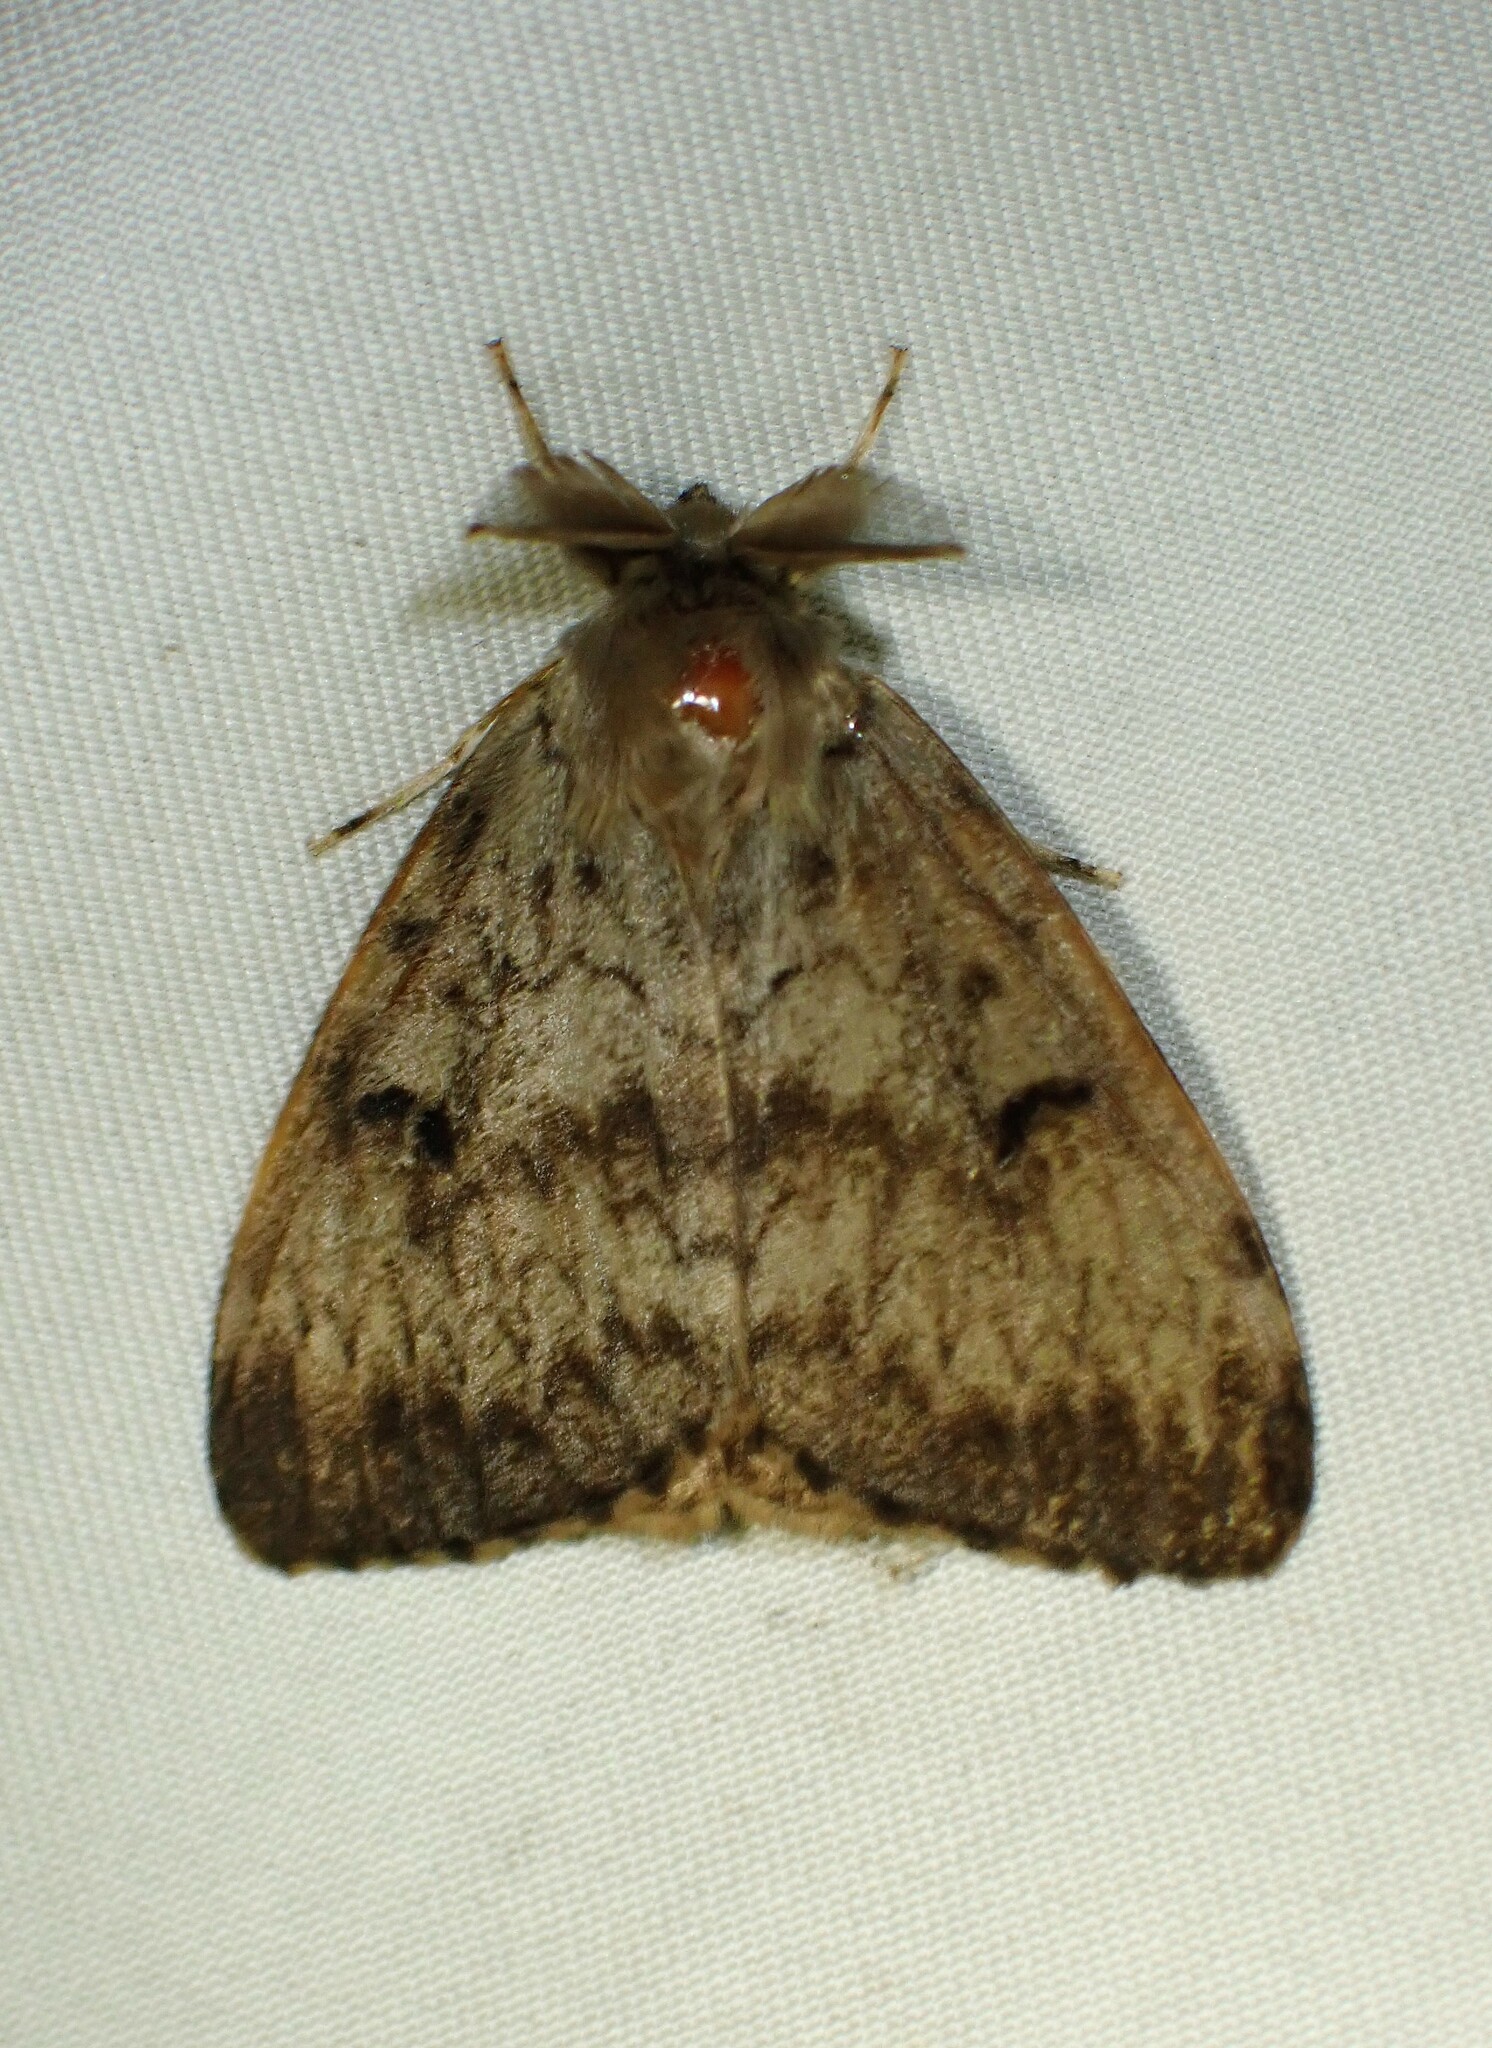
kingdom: Animalia
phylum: Arthropoda
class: Insecta
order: Lepidoptera
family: Erebidae
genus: Lymantria
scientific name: Lymantria dispar
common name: Gypsy moth
